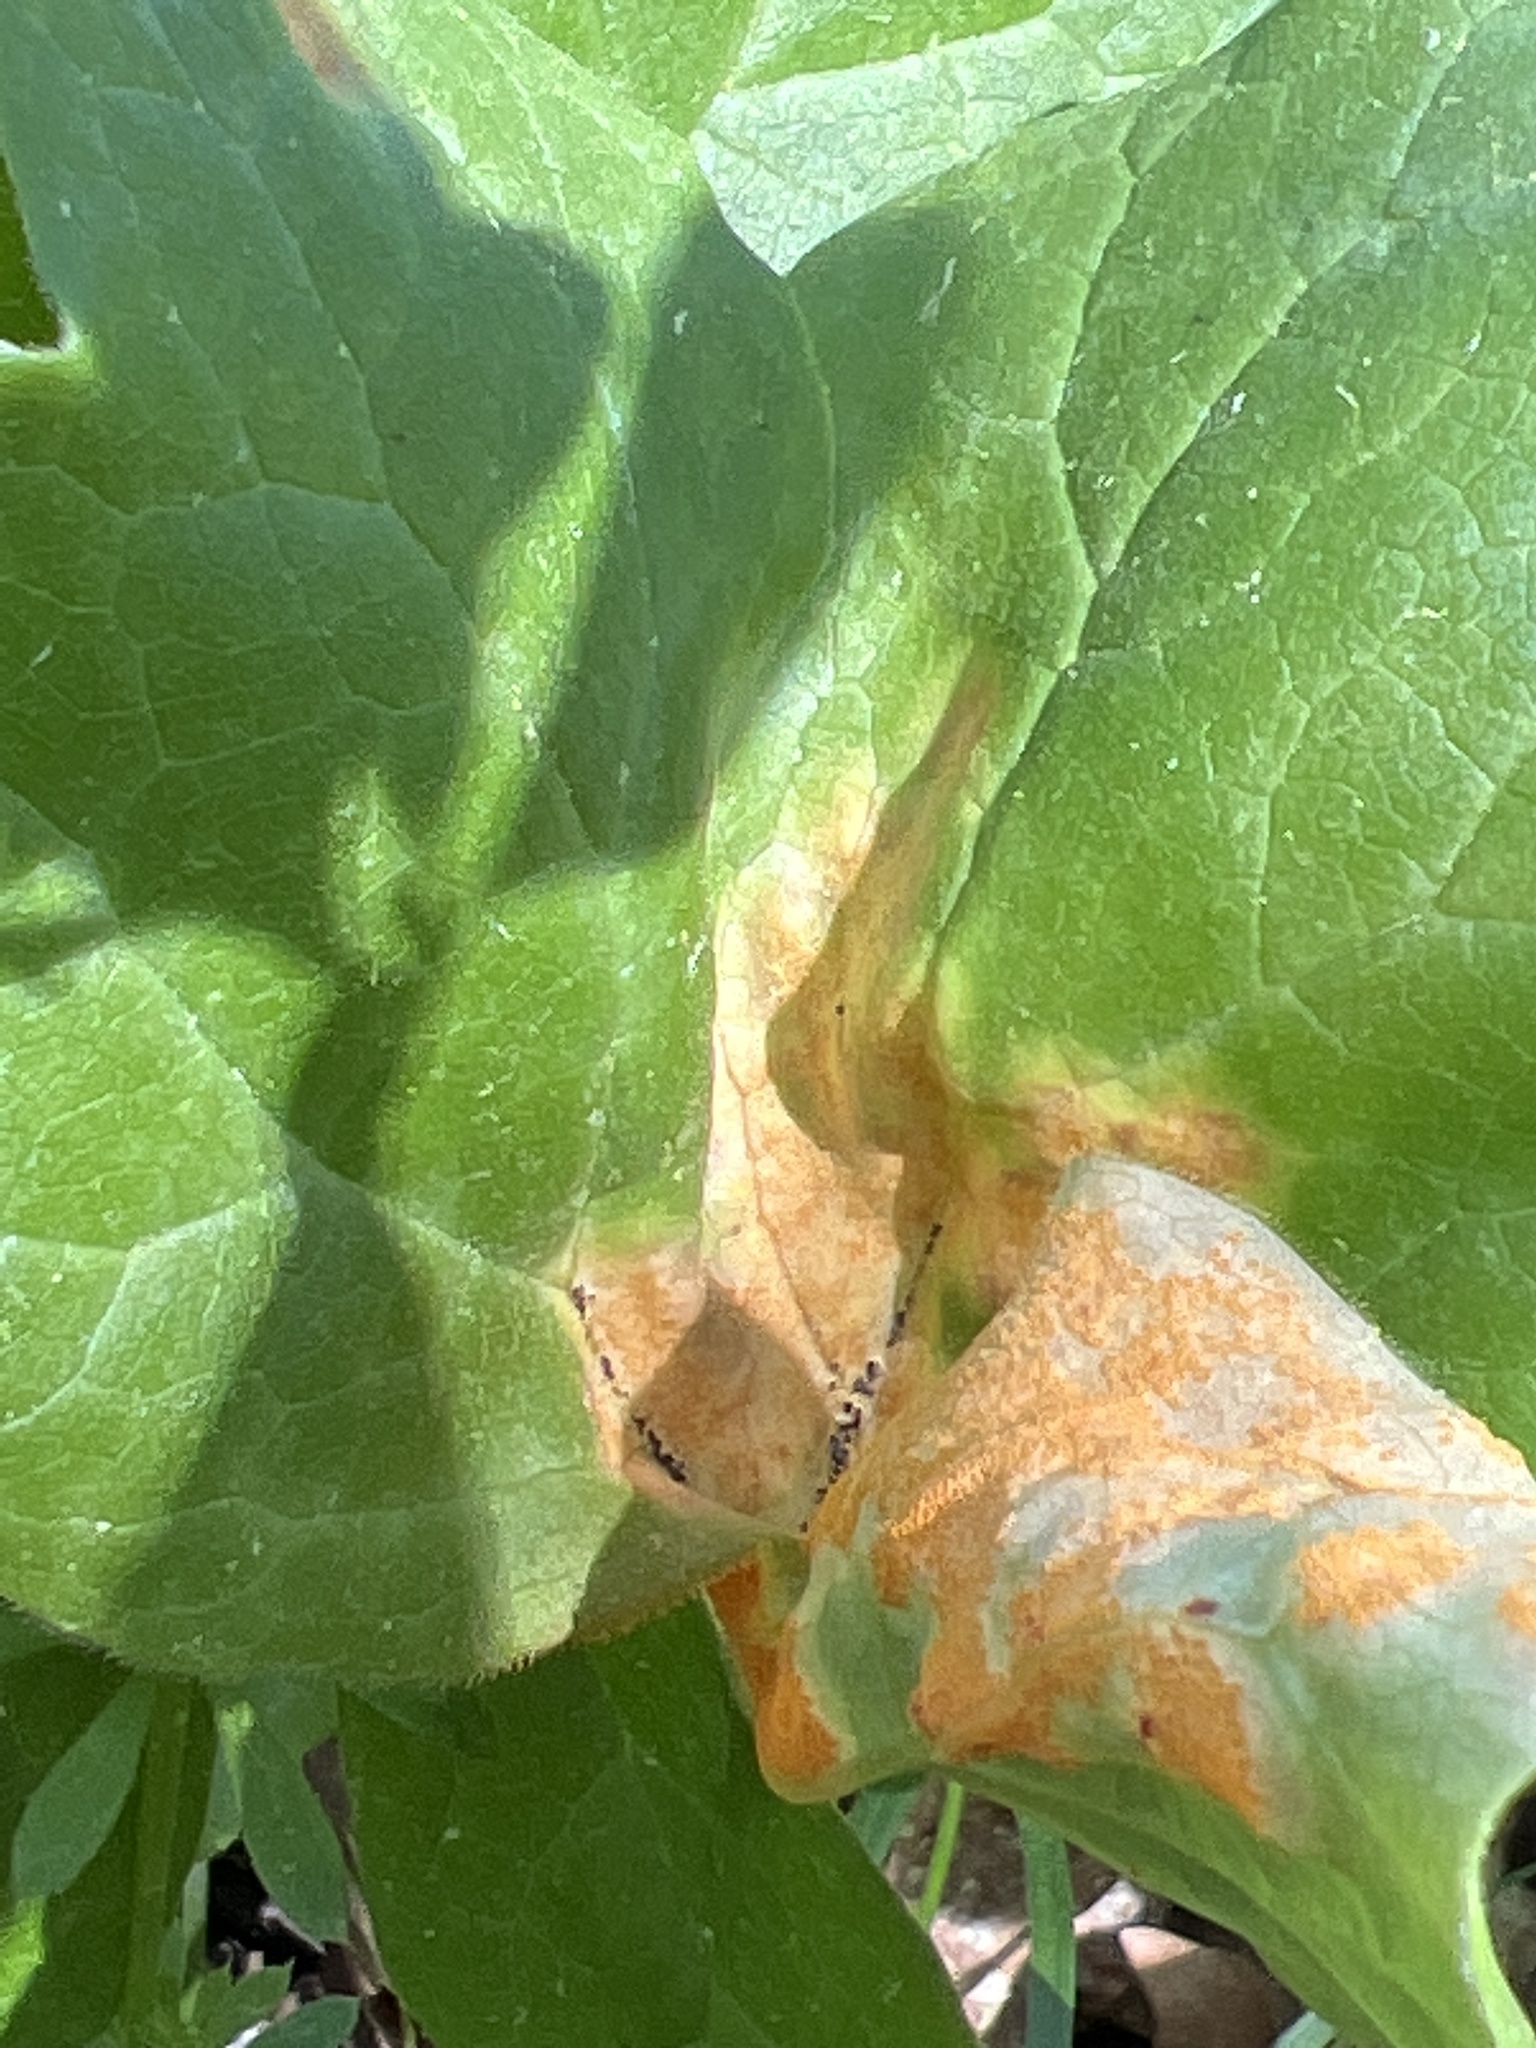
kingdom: Fungi
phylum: Basidiomycota
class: Pucciniomycetes
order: Pucciniales
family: Pucciniaceae
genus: Puccinia
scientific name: Puccinia podophylli
